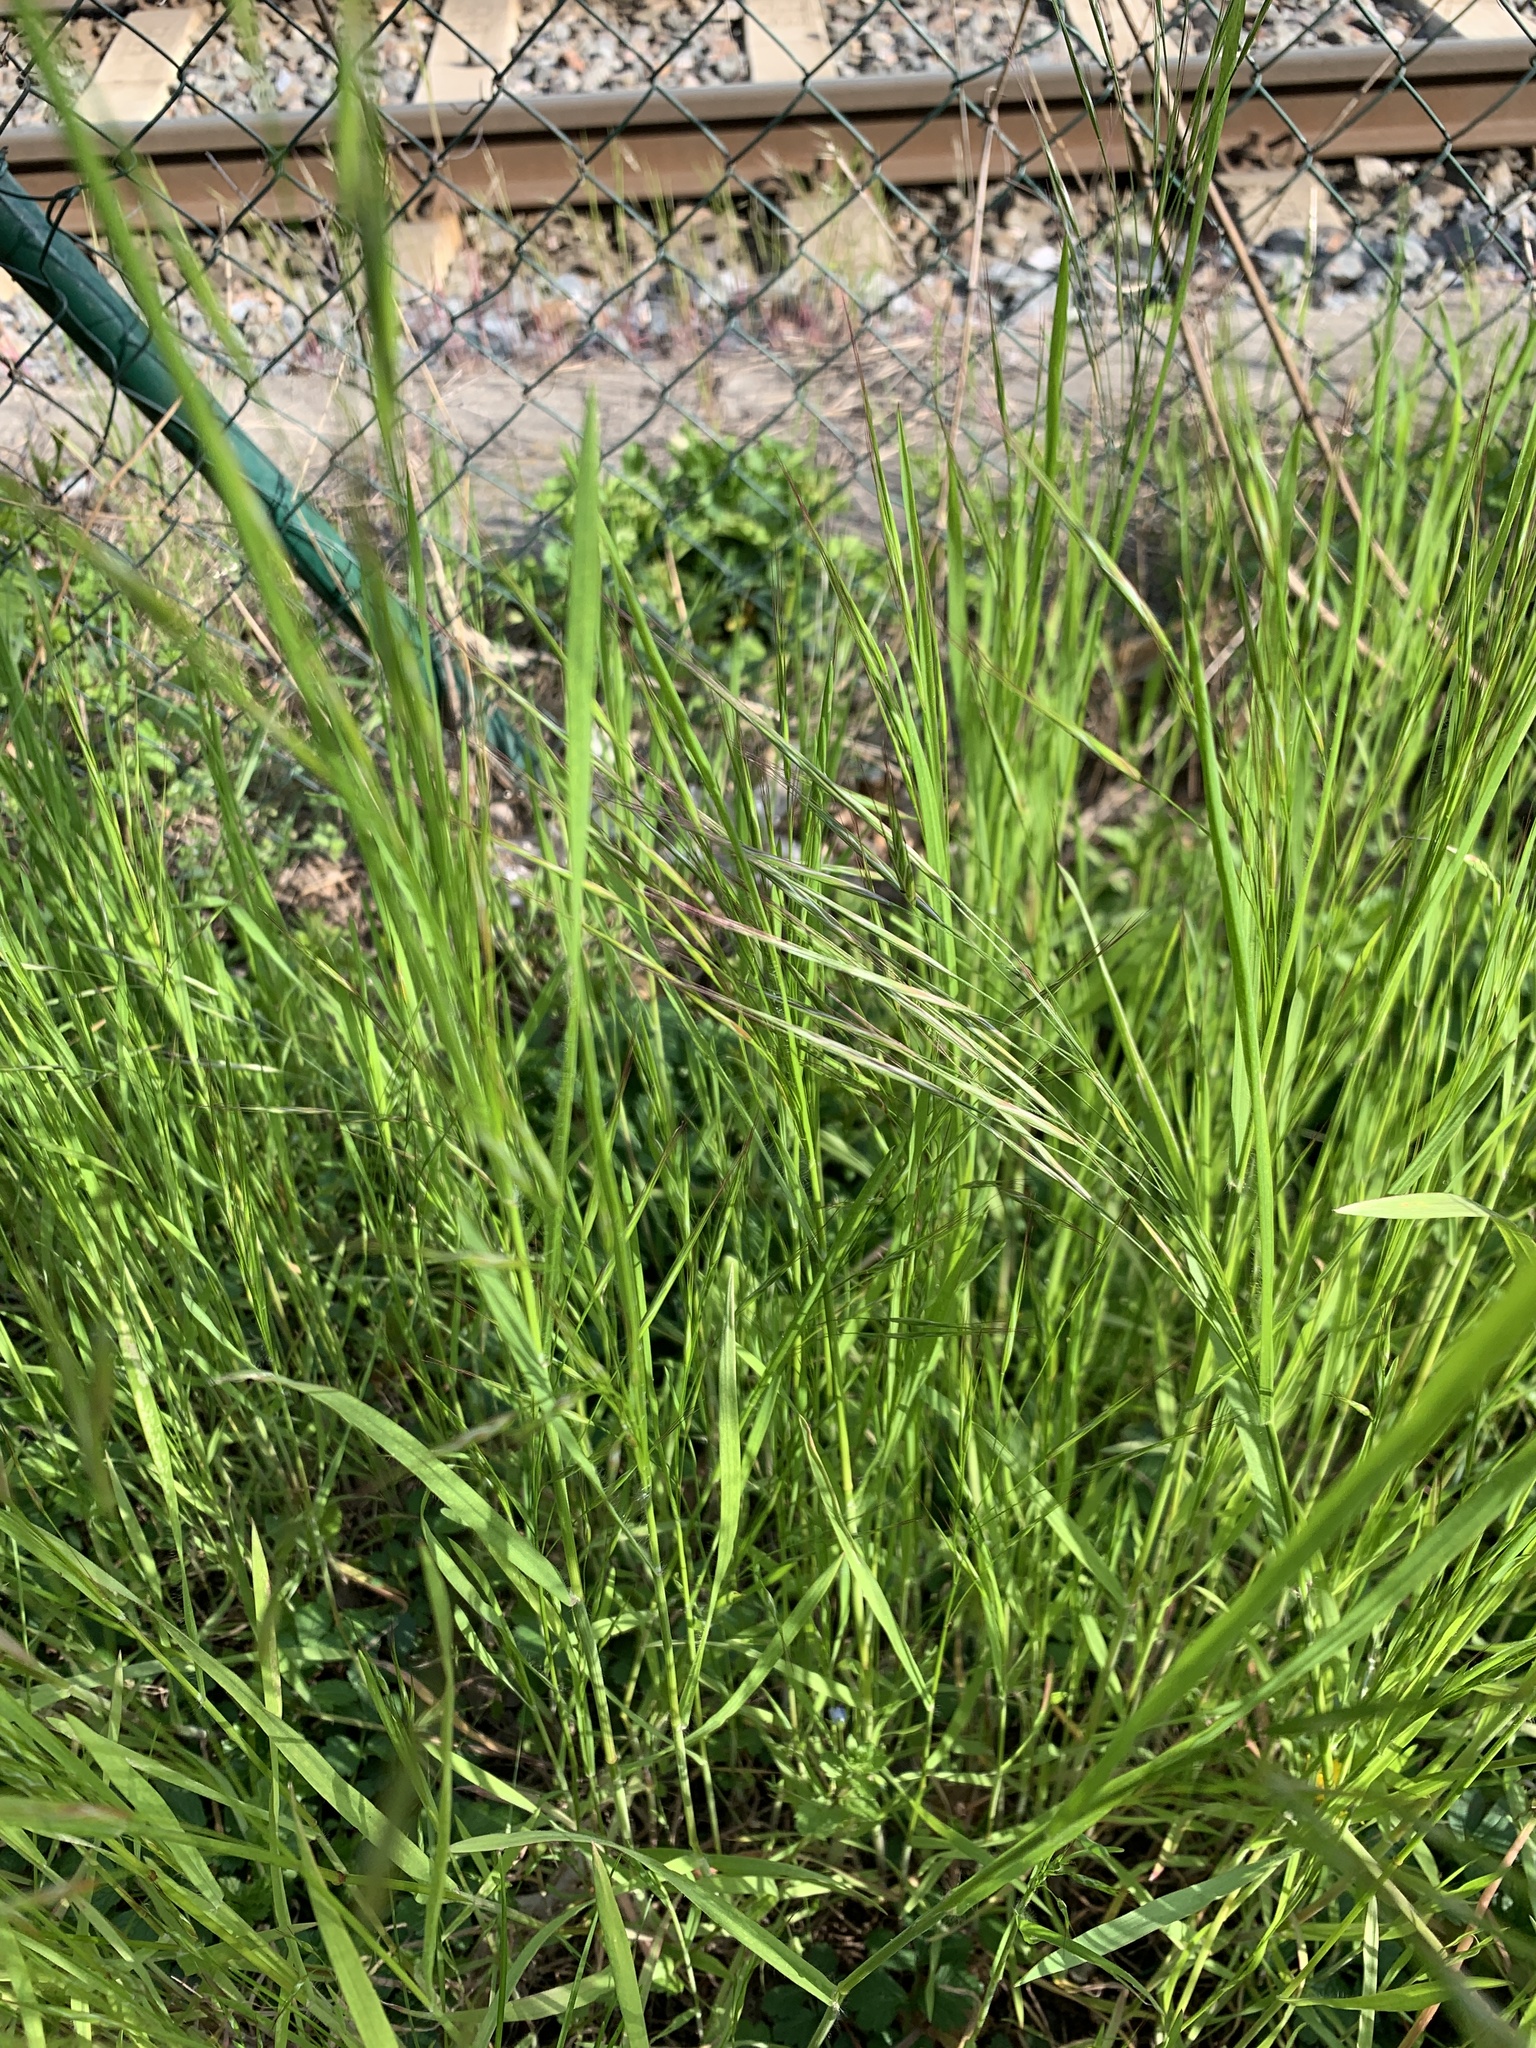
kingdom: Plantae
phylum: Tracheophyta
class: Liliopsida
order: Poales
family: Poaceae
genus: Bromus
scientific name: Bromus sterilis
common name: Poverty brome
